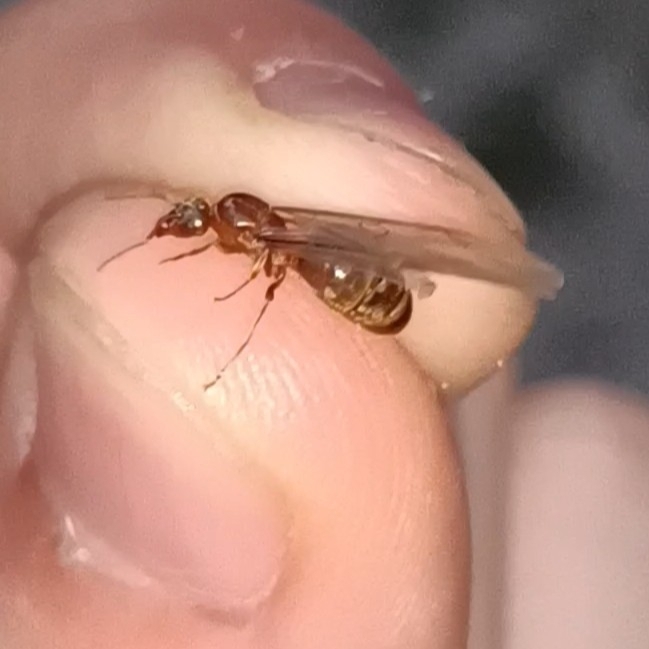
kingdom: Animalia
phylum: Arthropoda
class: Insecta
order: Hymenoptera
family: Formicidae
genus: Lasius
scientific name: Lasius emarginatus
